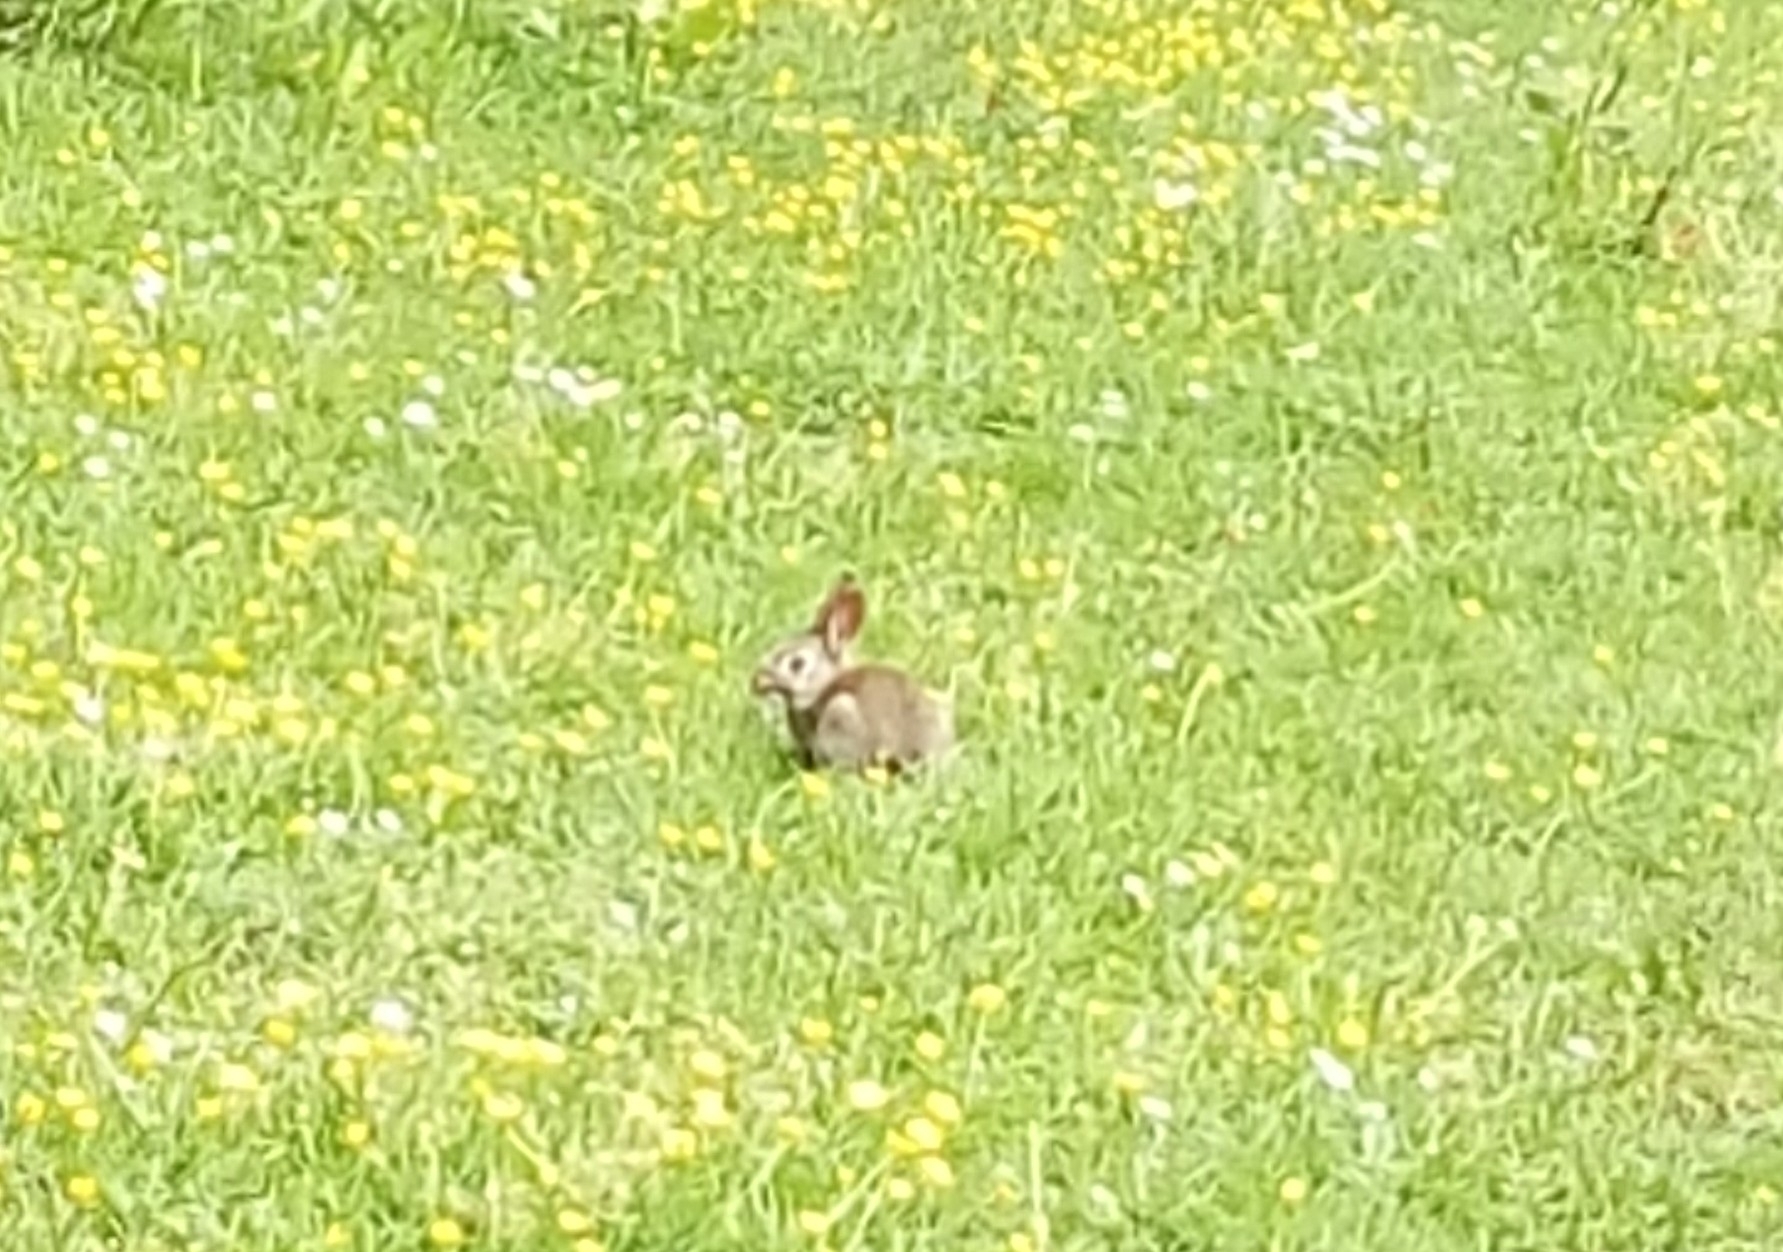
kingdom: Animalia
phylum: Chordata
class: Mammalia
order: Lagomorpha
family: Leporidae
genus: Oryctolagus
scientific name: Oryctolagus cuniculus
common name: European rabbit
